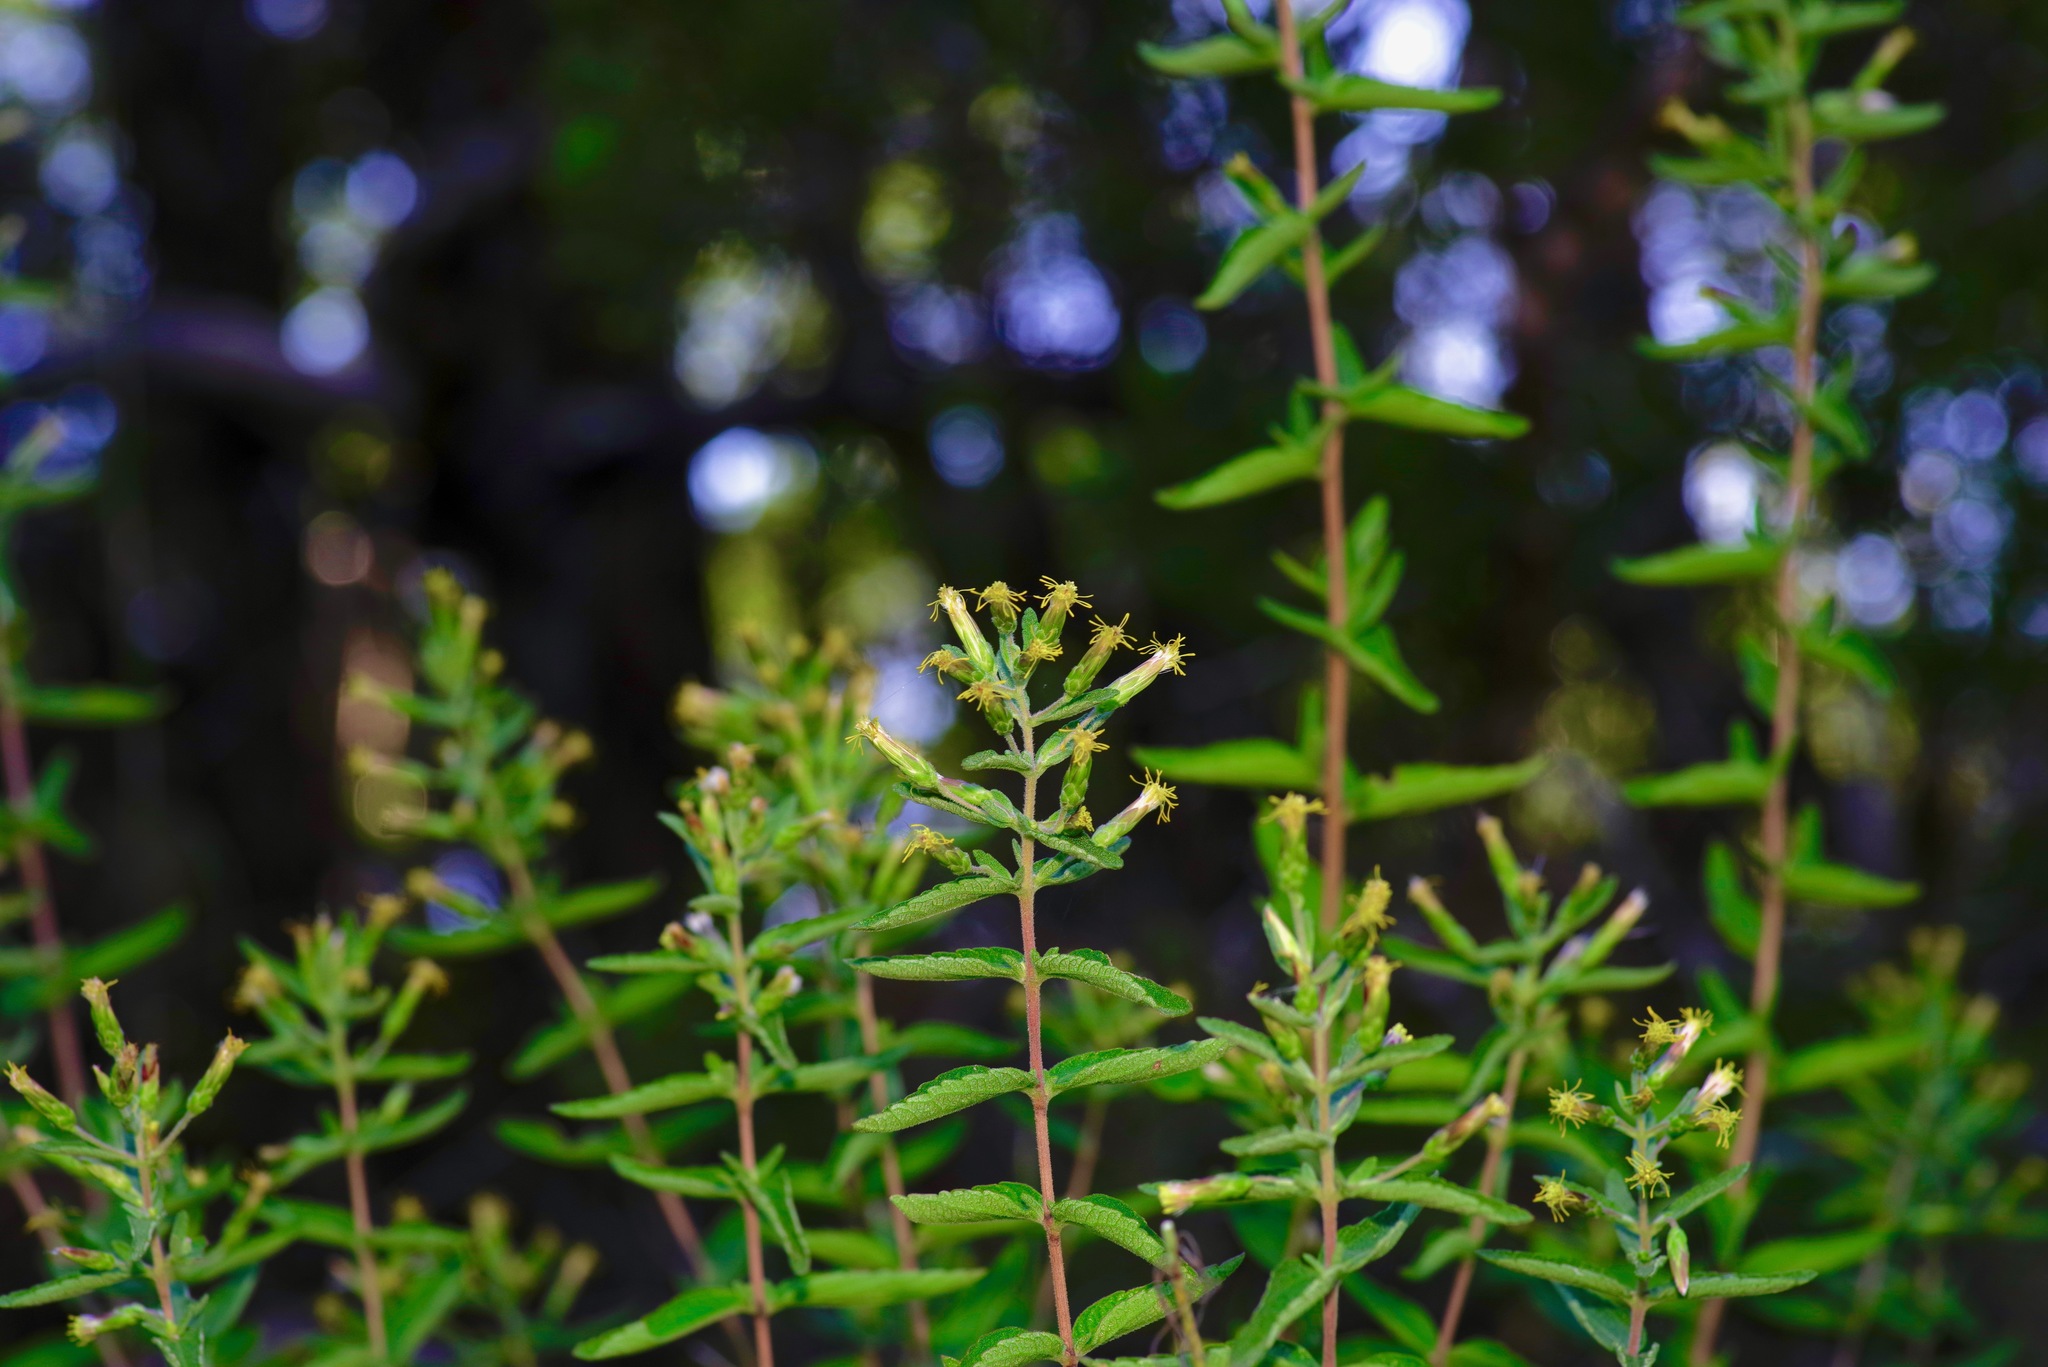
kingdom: Plantae
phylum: Tracheophyta
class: Magnoliopsida
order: Asterales
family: Asteraceae
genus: Brickellia
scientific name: Brickellia cylindracea
